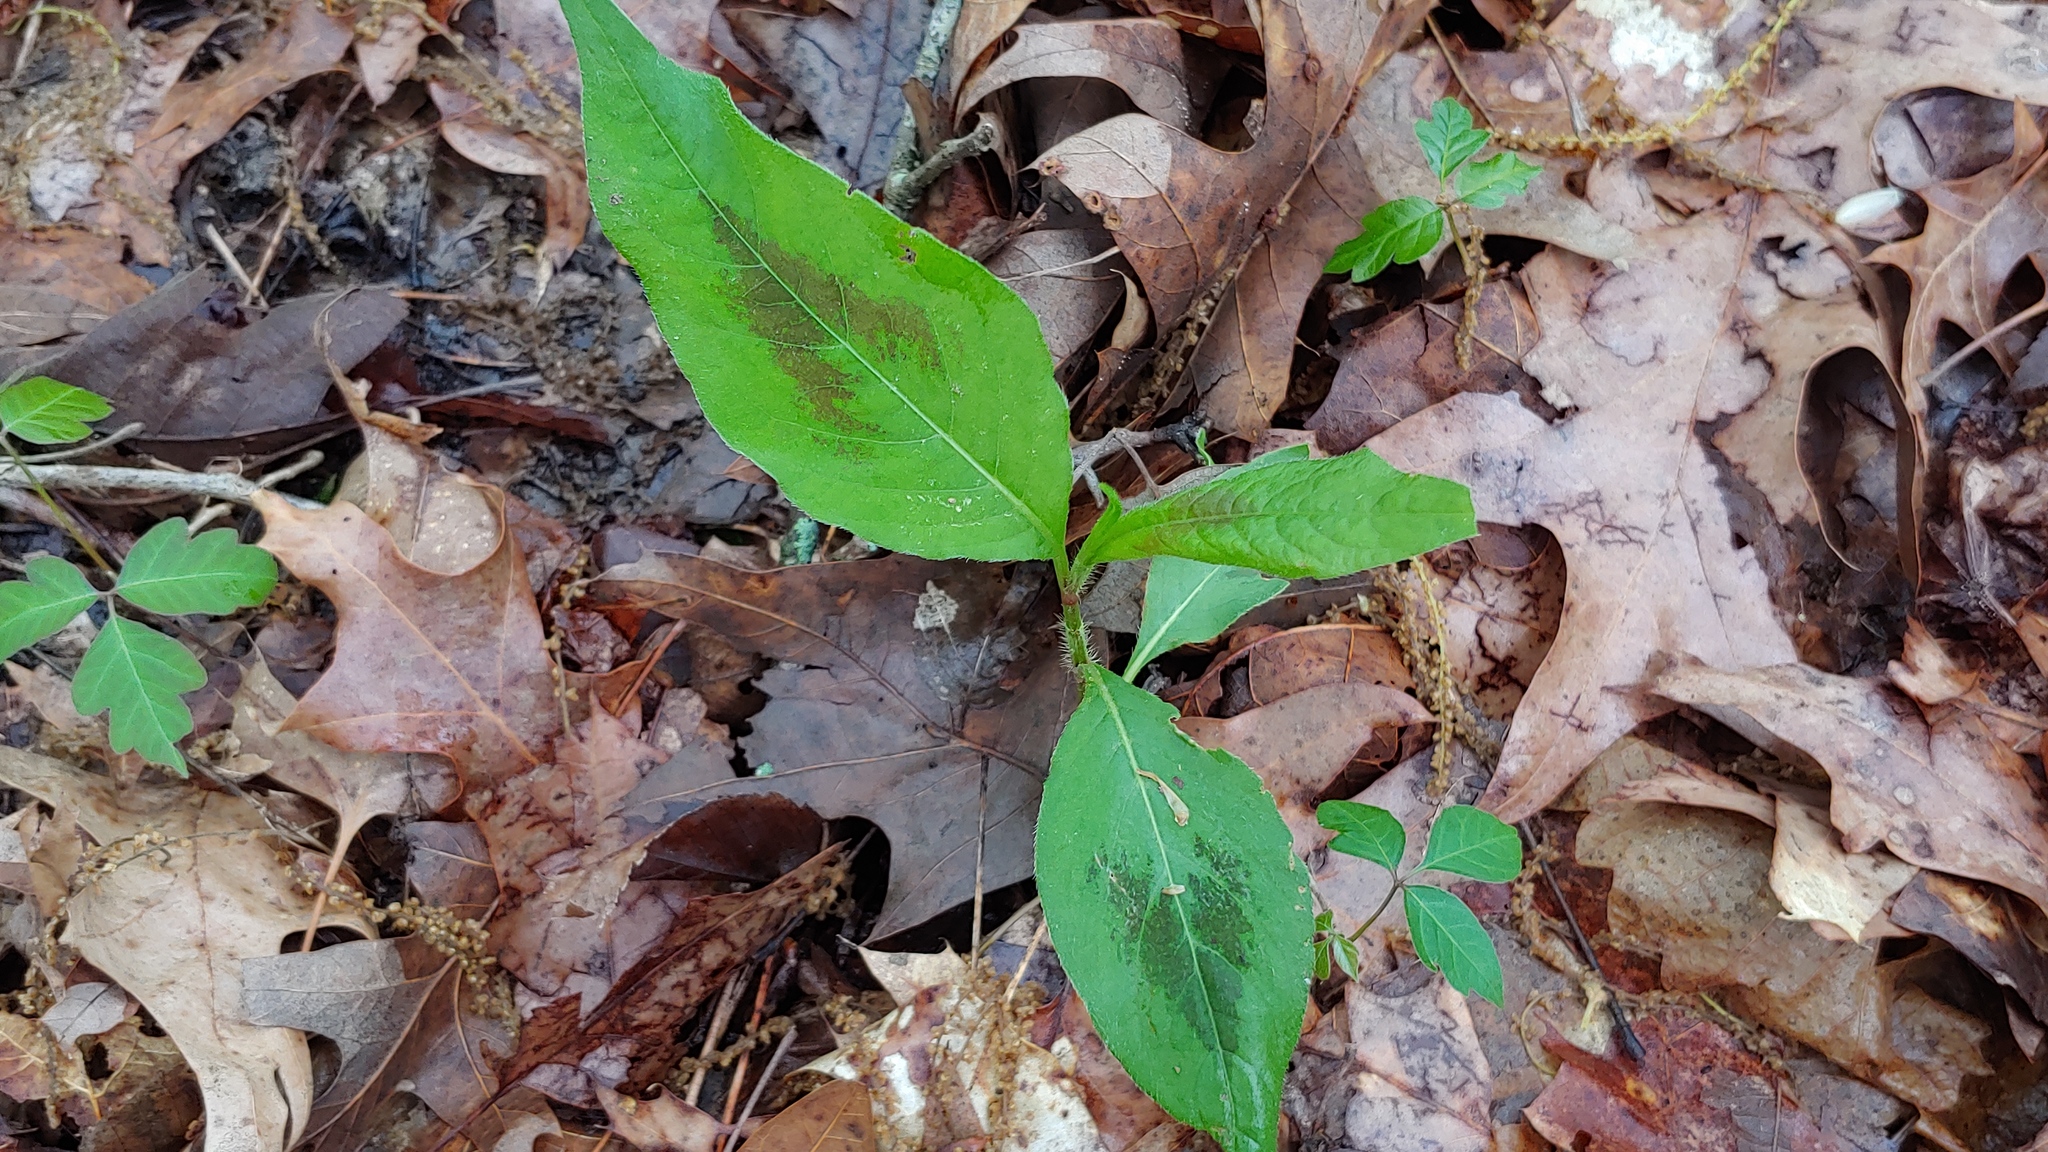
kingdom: Plantae
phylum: Tracheophyta
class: Magnoliopsida
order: Caryophyllales
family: Polygonaceae
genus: Persicaria
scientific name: Persicaria virginiana
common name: Jumpseed
